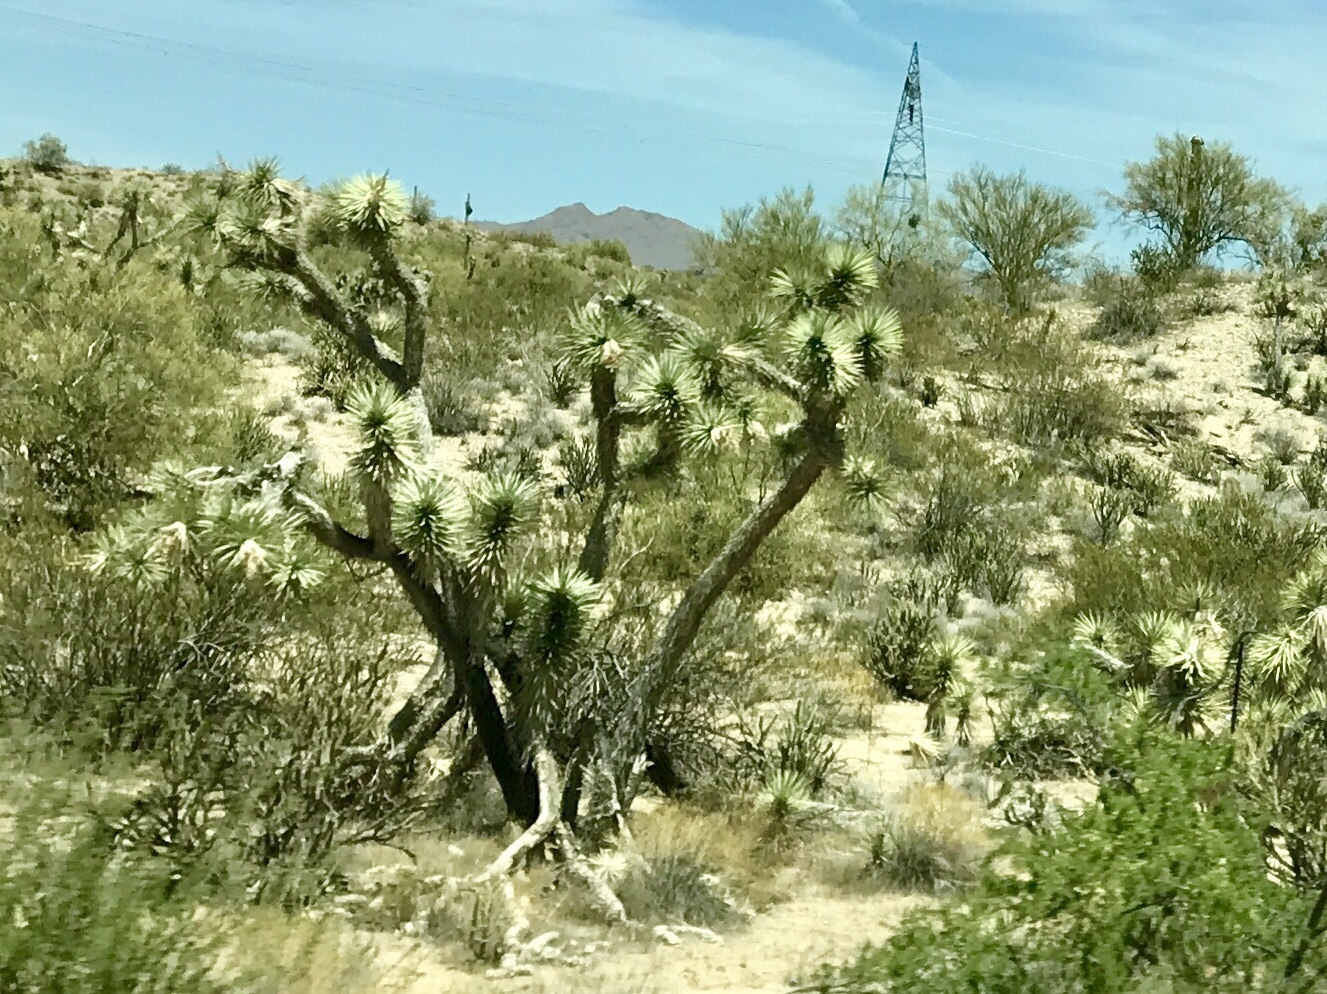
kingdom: Plantae
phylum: Tracheophyta
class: Liliopsida
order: Asparagales
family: Asparagaceae
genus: Yucca
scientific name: Yucca brevifolia
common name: Joshua tree
